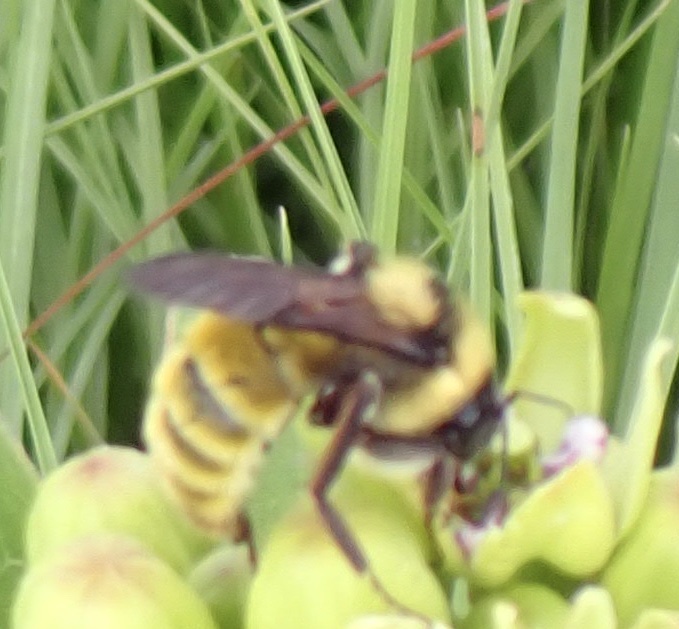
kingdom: Animalia
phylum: Arthropoda
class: Insecta
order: Hymenoptera
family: Apidae
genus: Bombus
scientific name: Bombus pensylvanicus
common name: Bumble bee
